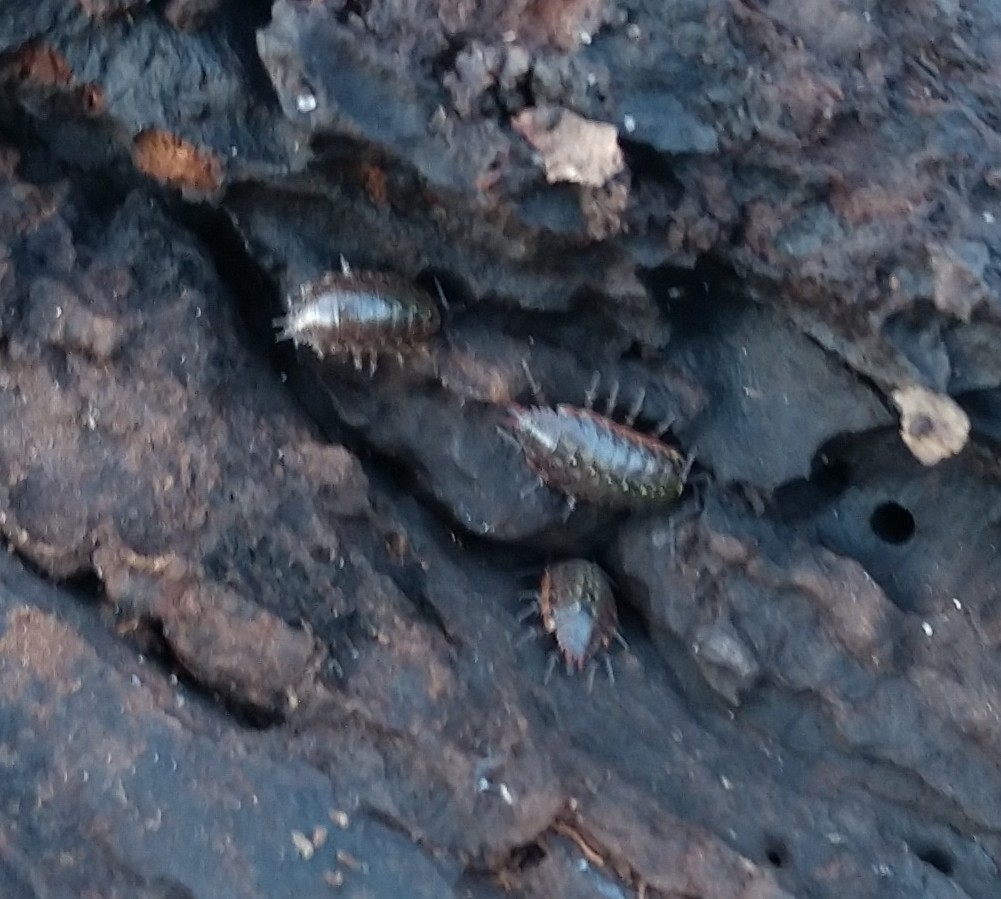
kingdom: Animalia
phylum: Arthropoda
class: Malacostraca
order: Isopoda
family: Philosciidae
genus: Philoscia
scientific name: Philoscia muscorum
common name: Common striped woodlouse
